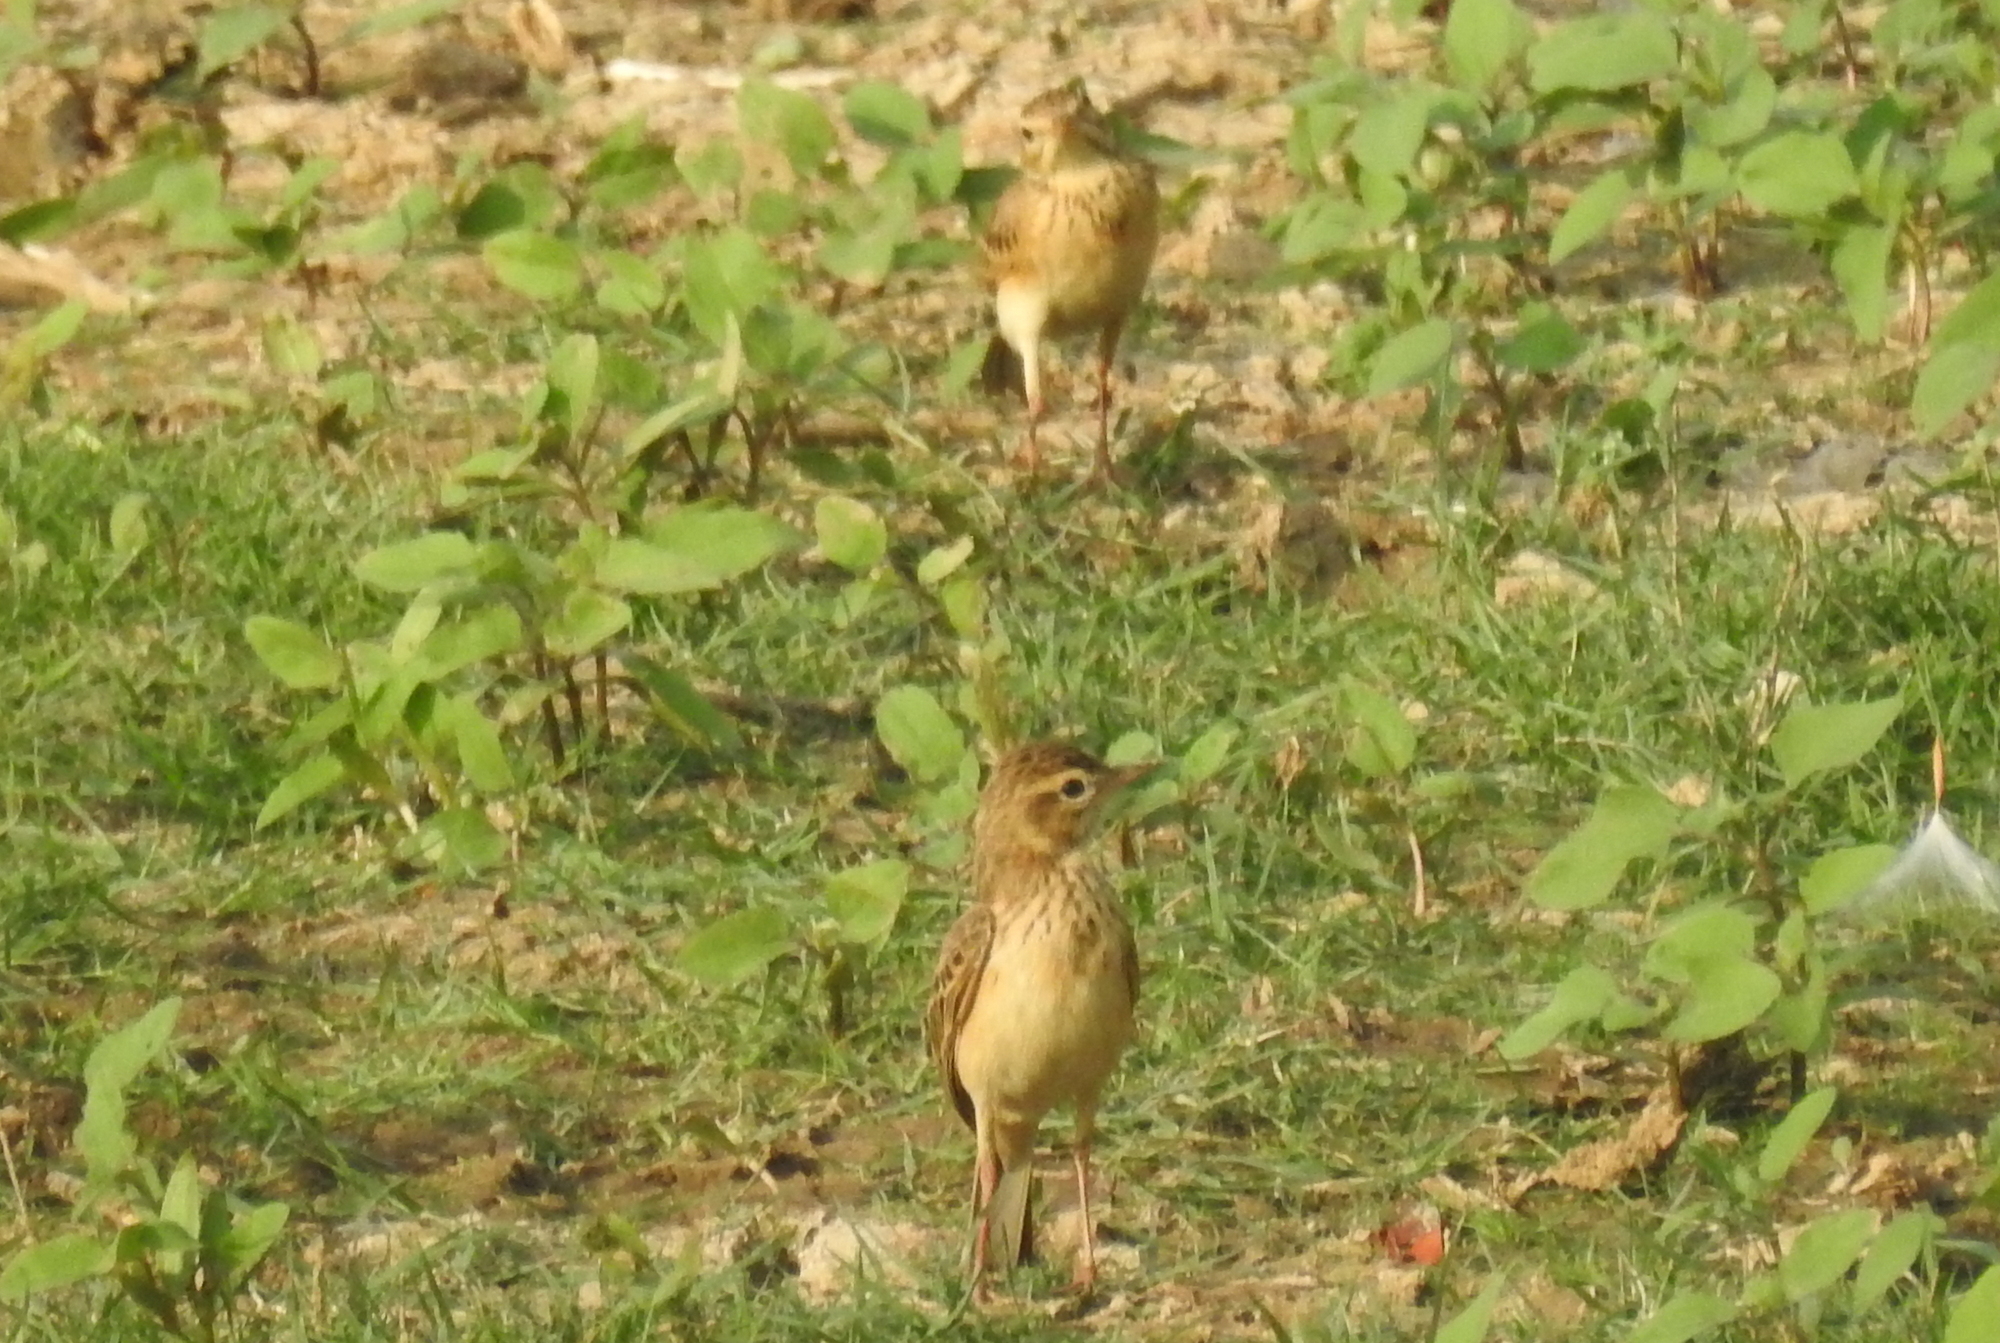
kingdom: Animalia
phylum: Chordata
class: Aves
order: Passeriformes
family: Motacillidae
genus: Anthus
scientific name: Anthus rufulus
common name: Paddyfield pipit
